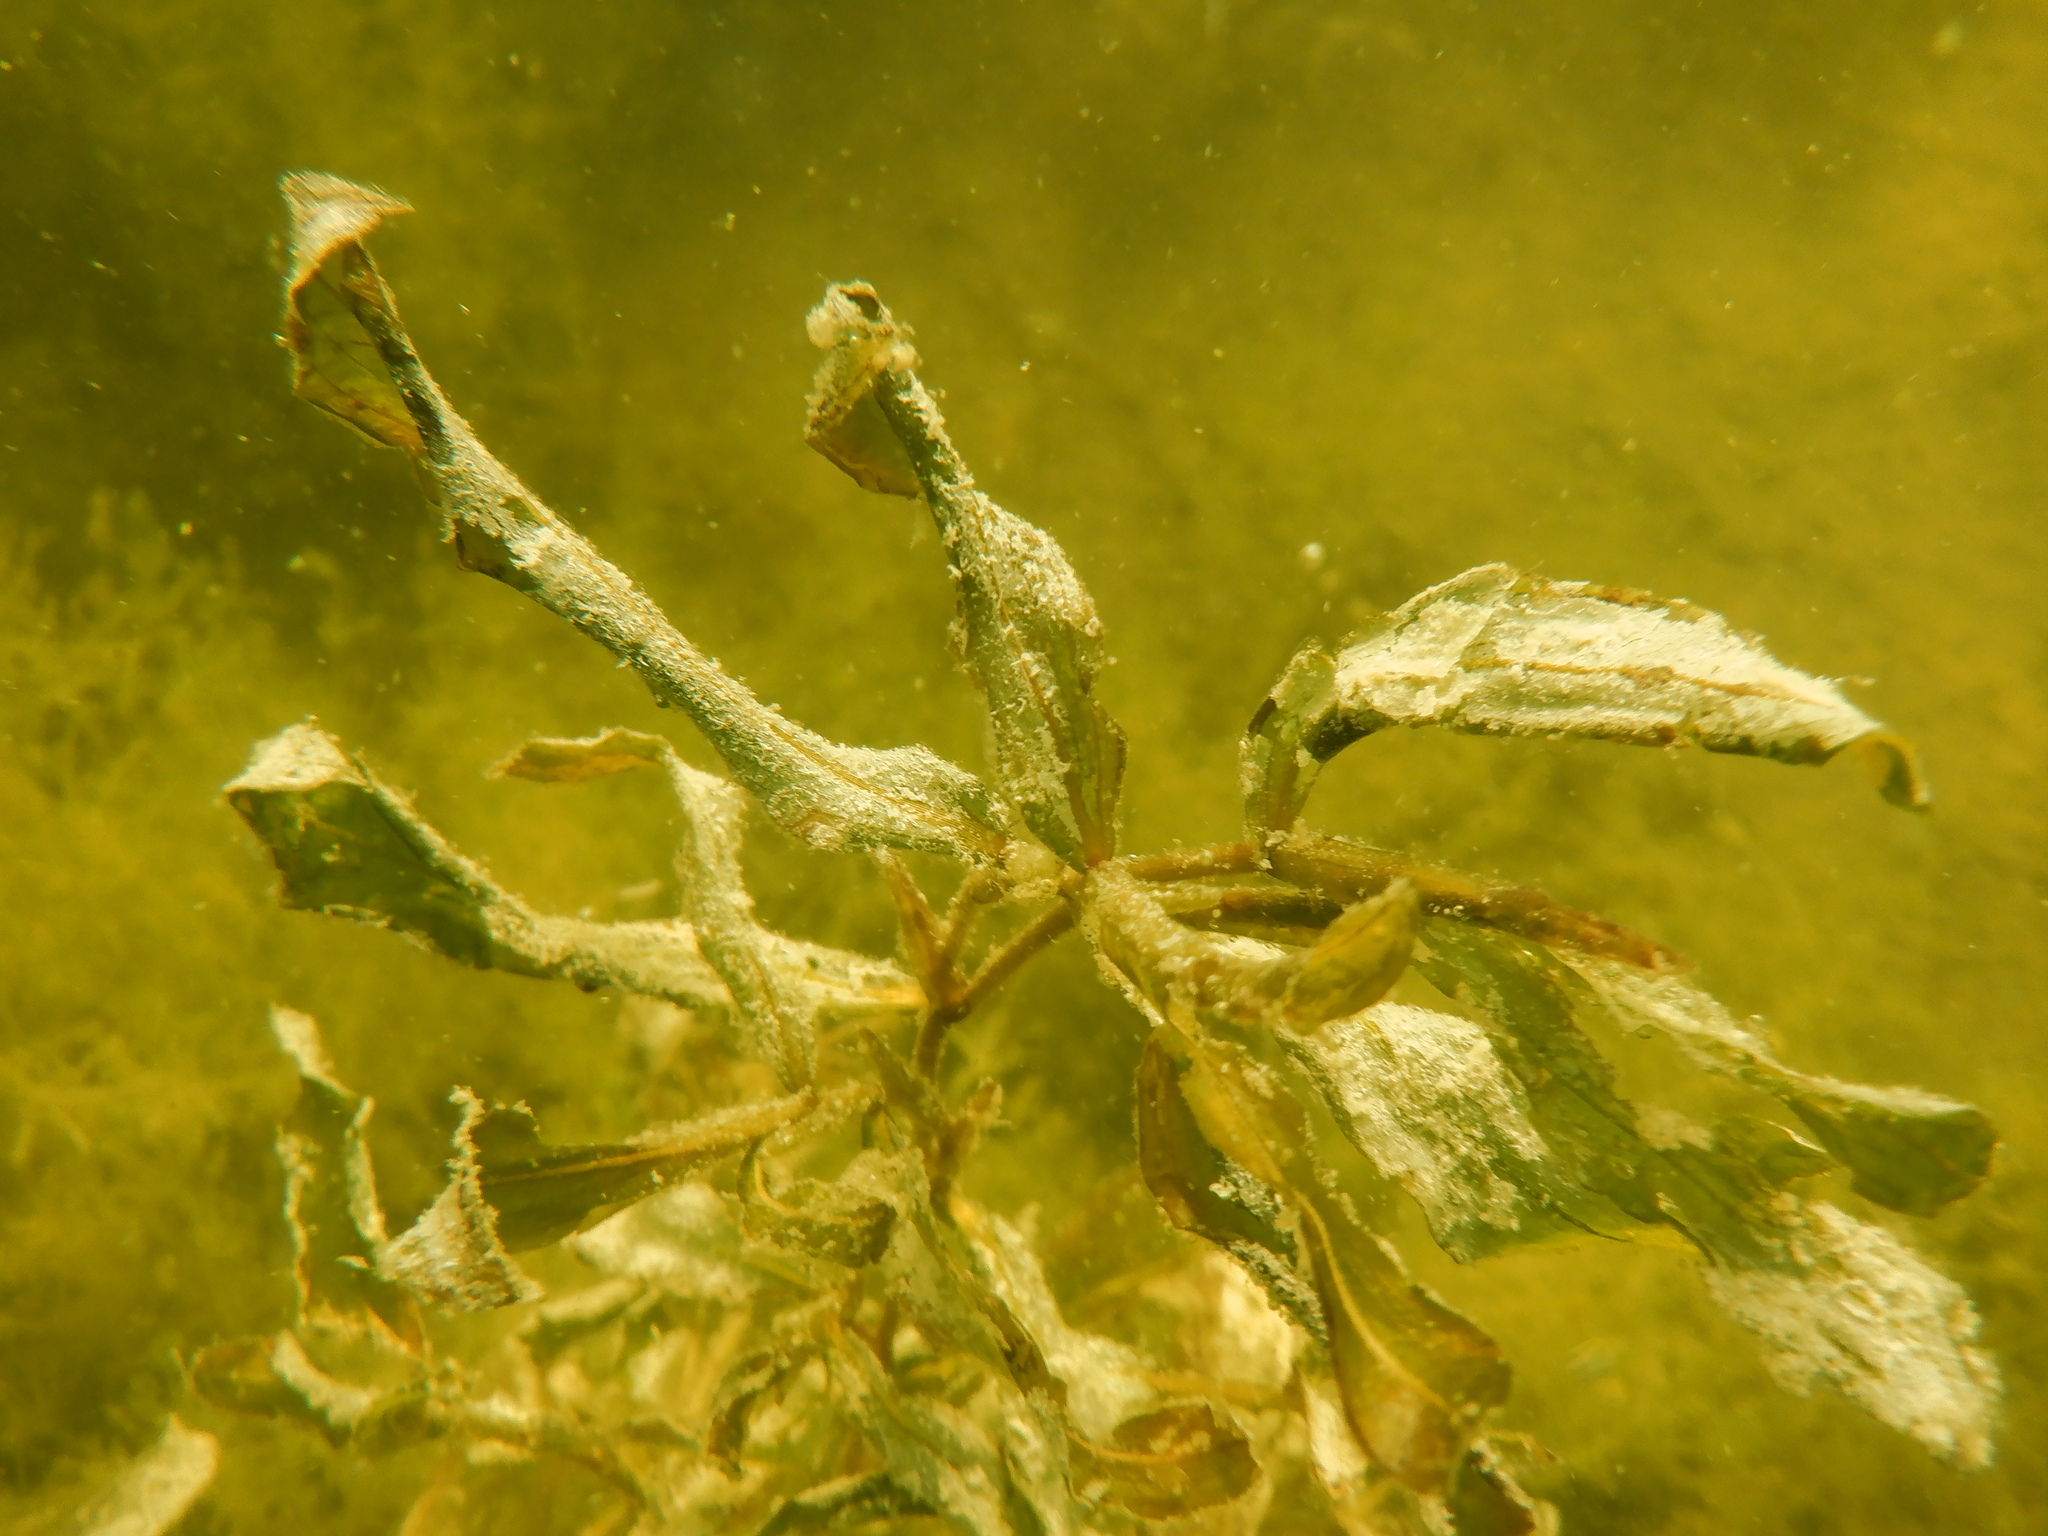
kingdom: Plantae
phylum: Tracheophyta
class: Liliopsida
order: Alismatales
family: Potamogetonaceae
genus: Potamogeton
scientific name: Potamogeton illinoensis
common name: Illinois pondweed
